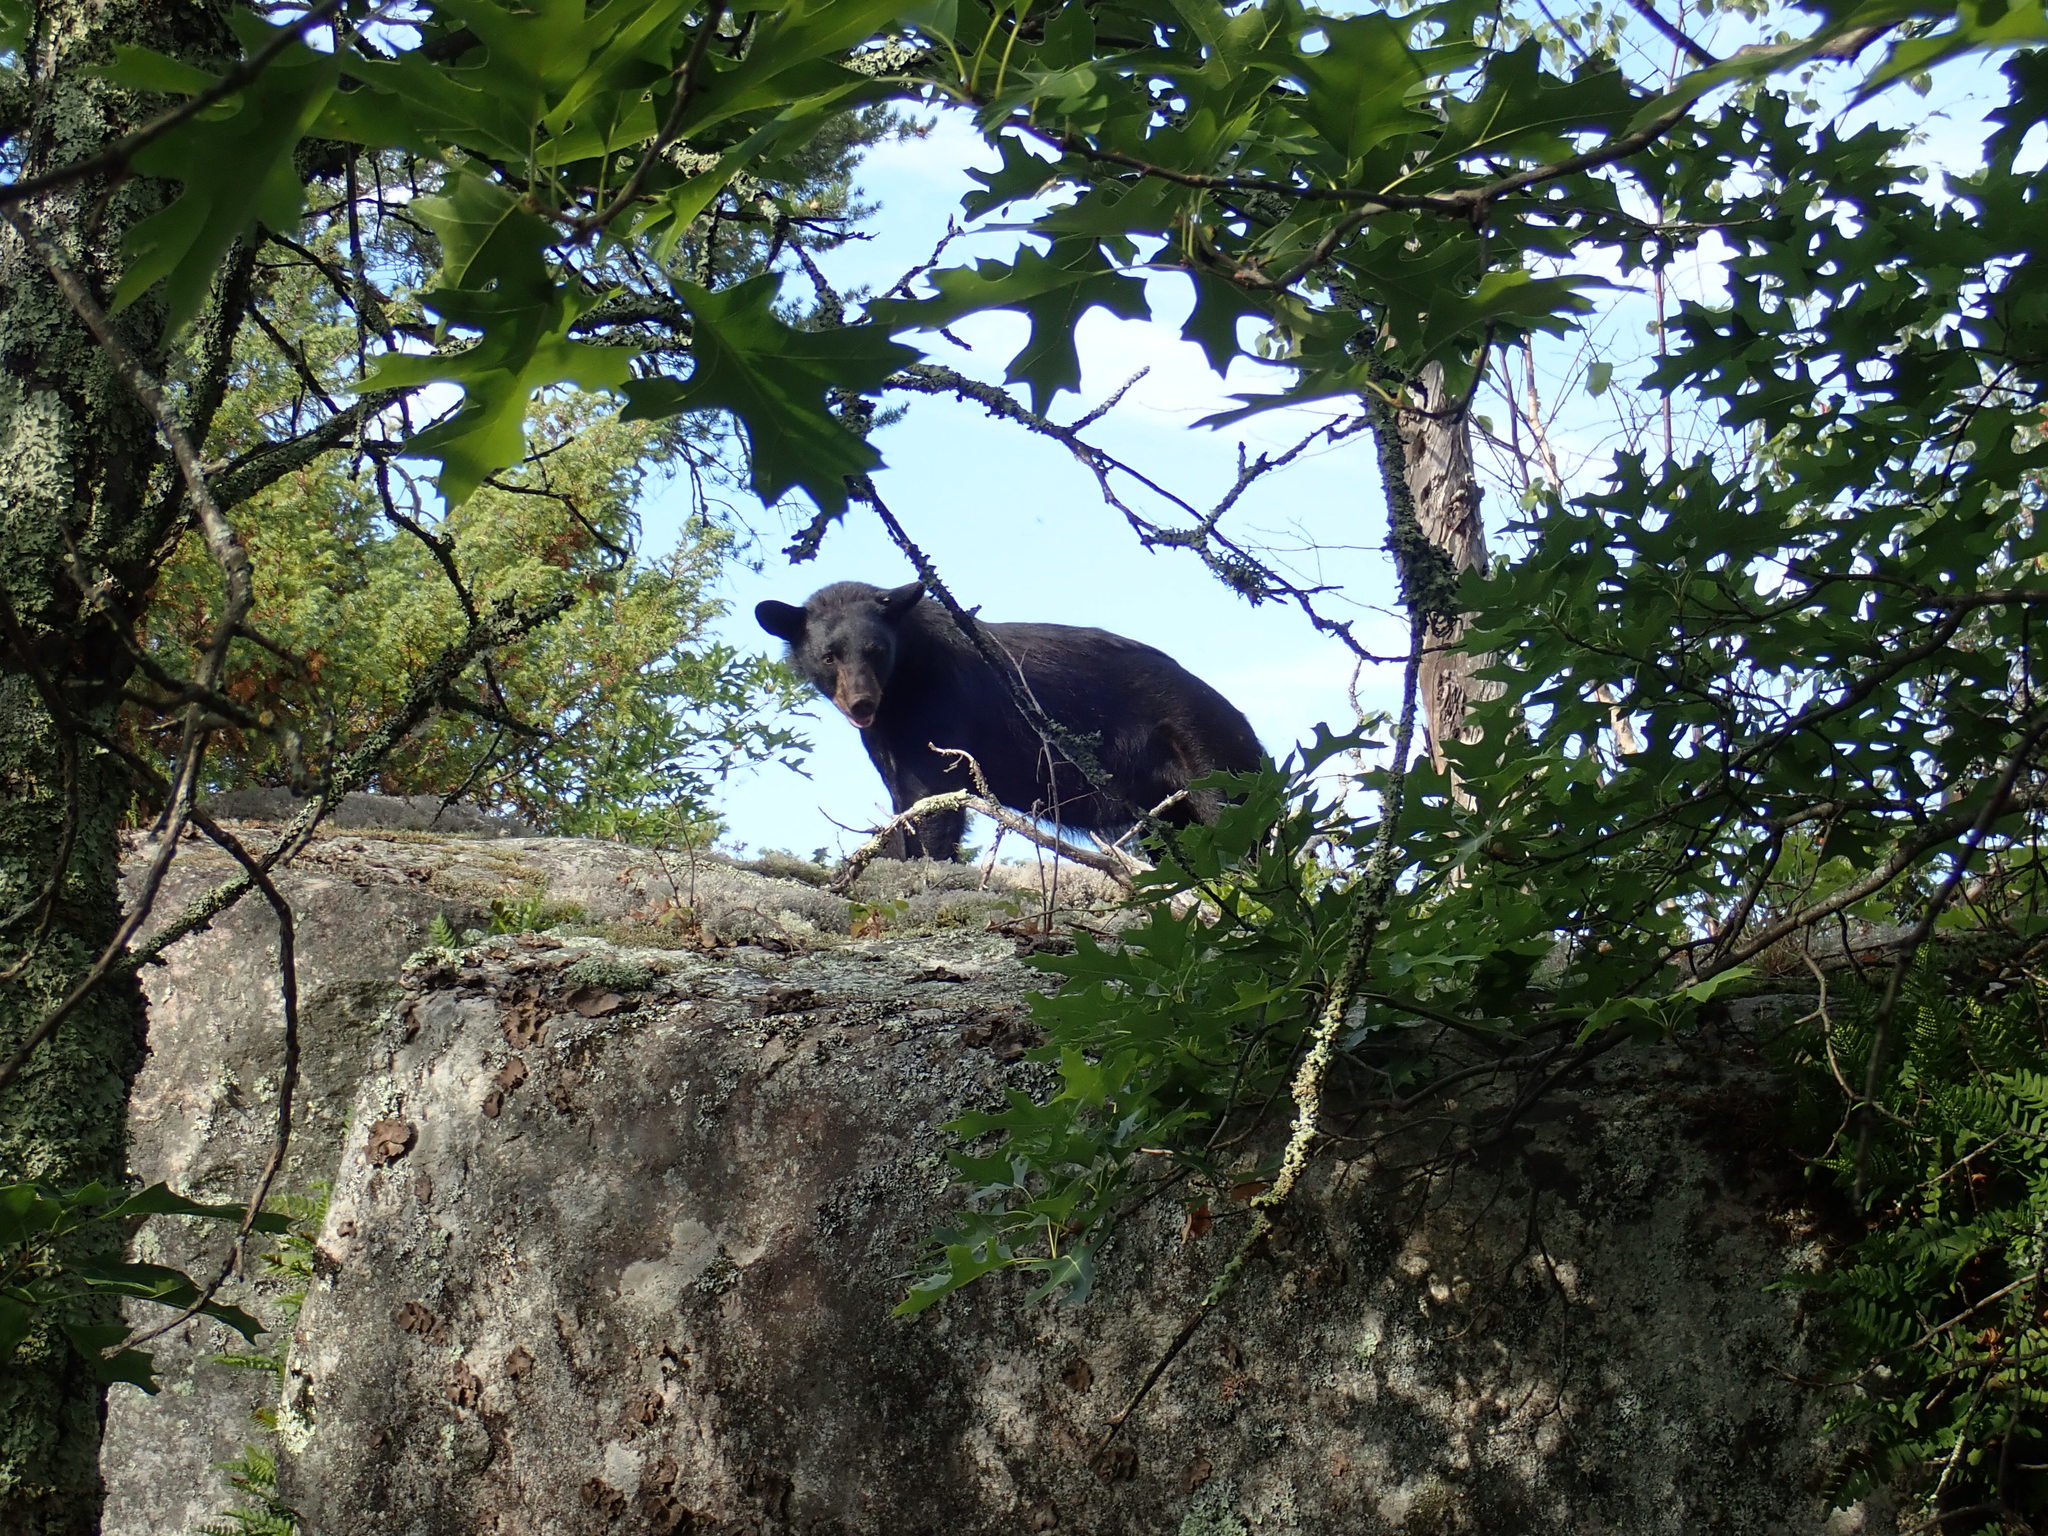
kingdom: Animalia
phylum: Chordata
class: Mammalia
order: Carnivora
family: Ursidae
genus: Ursus
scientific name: Ursus americanus
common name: American black bear
